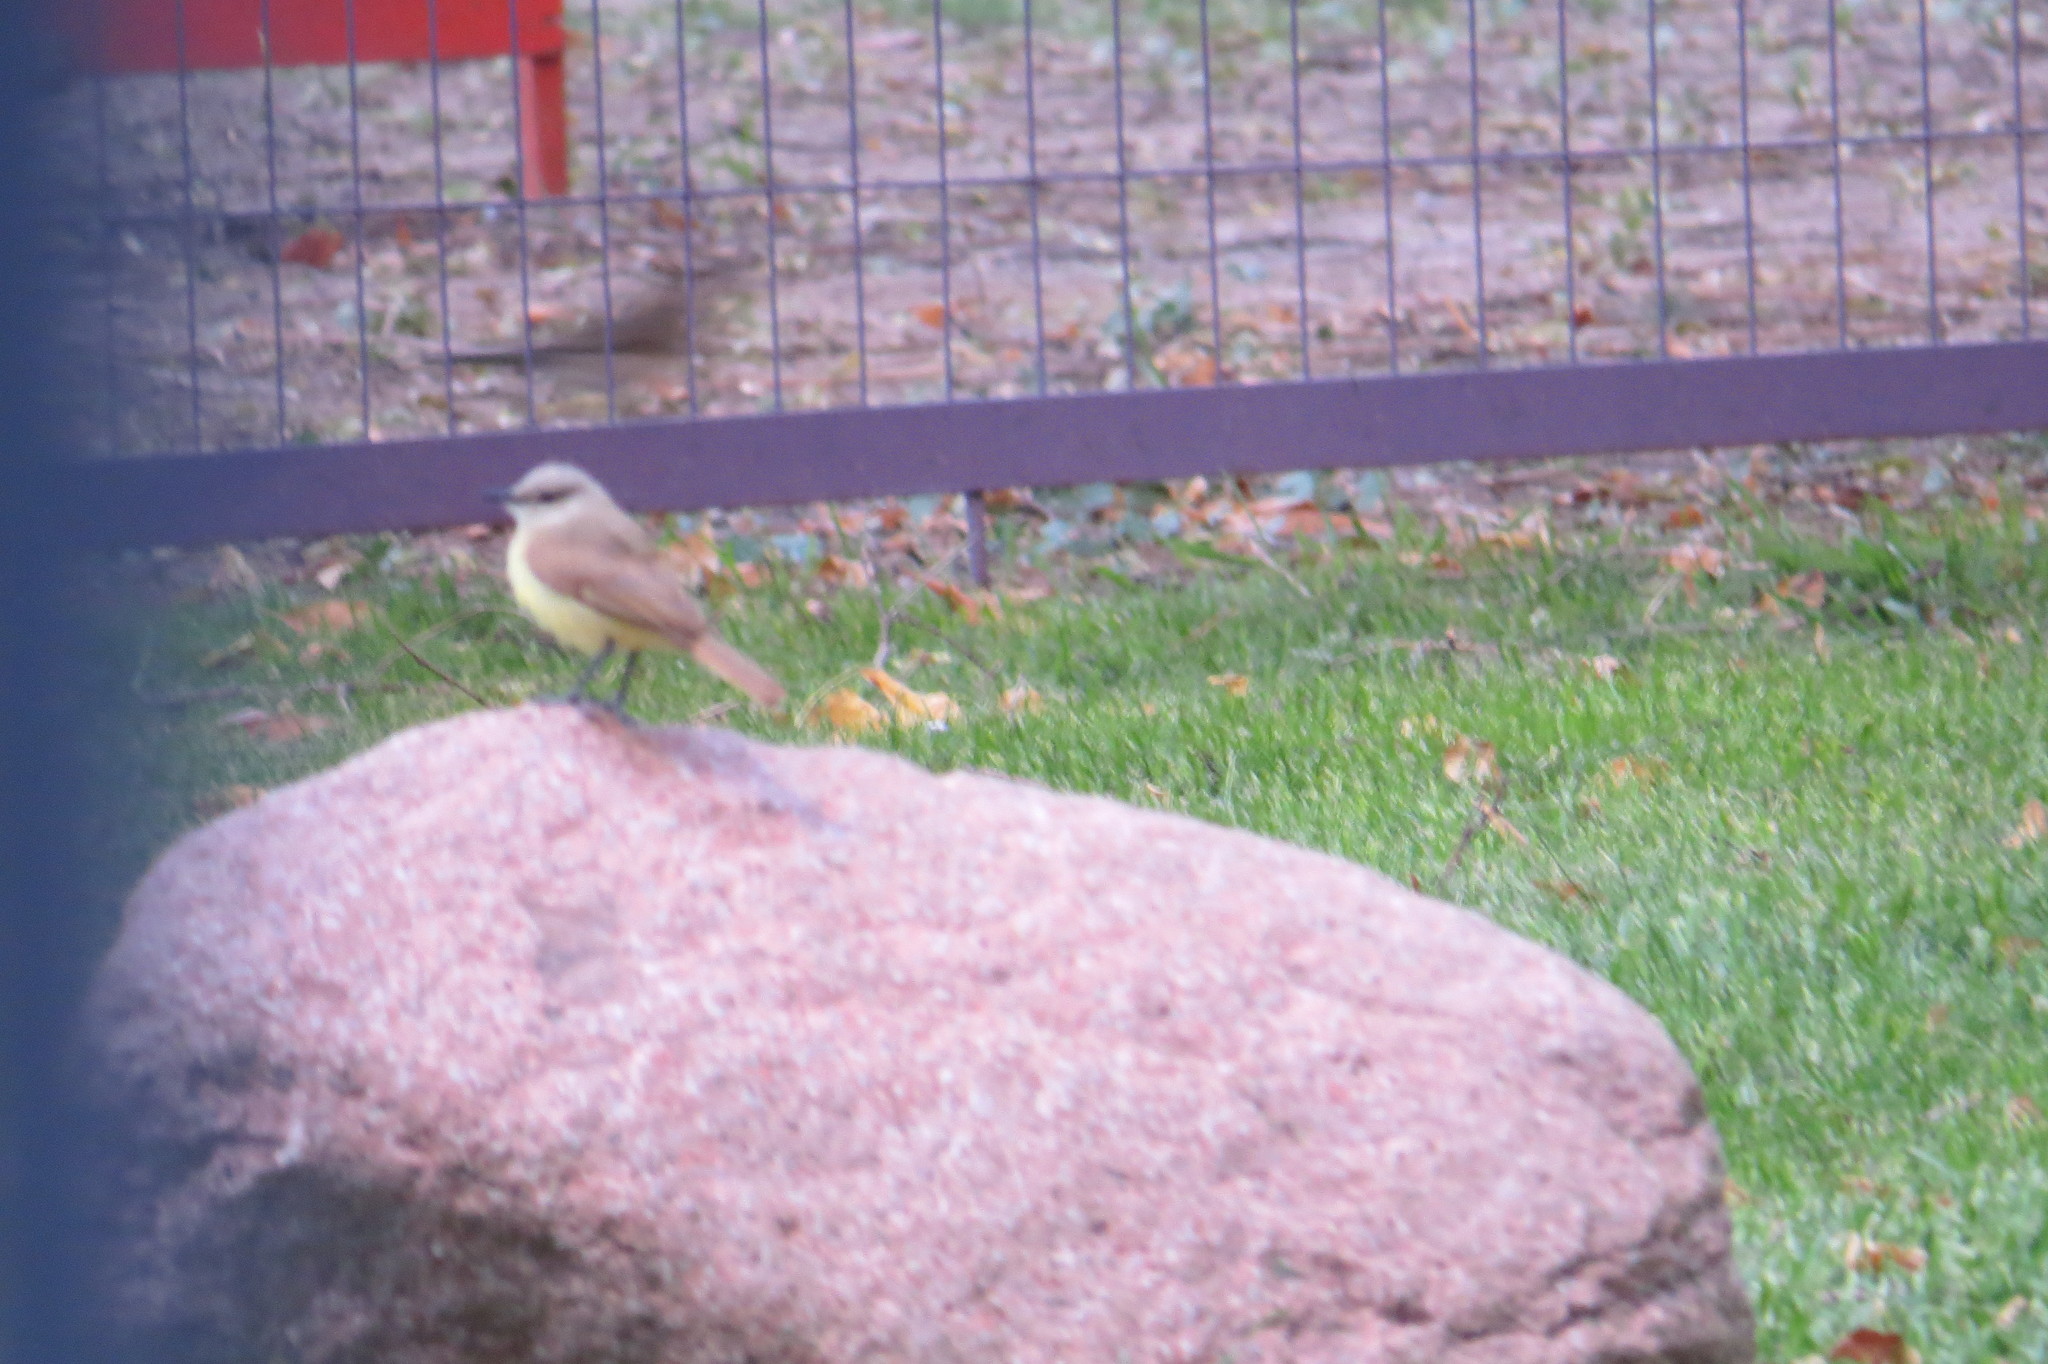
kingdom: Animalia
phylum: Chordata
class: Aves
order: Passeriformes
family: Tyrannidae
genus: Machetornis
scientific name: Machetornis rixosa
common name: Cattle tyrant
